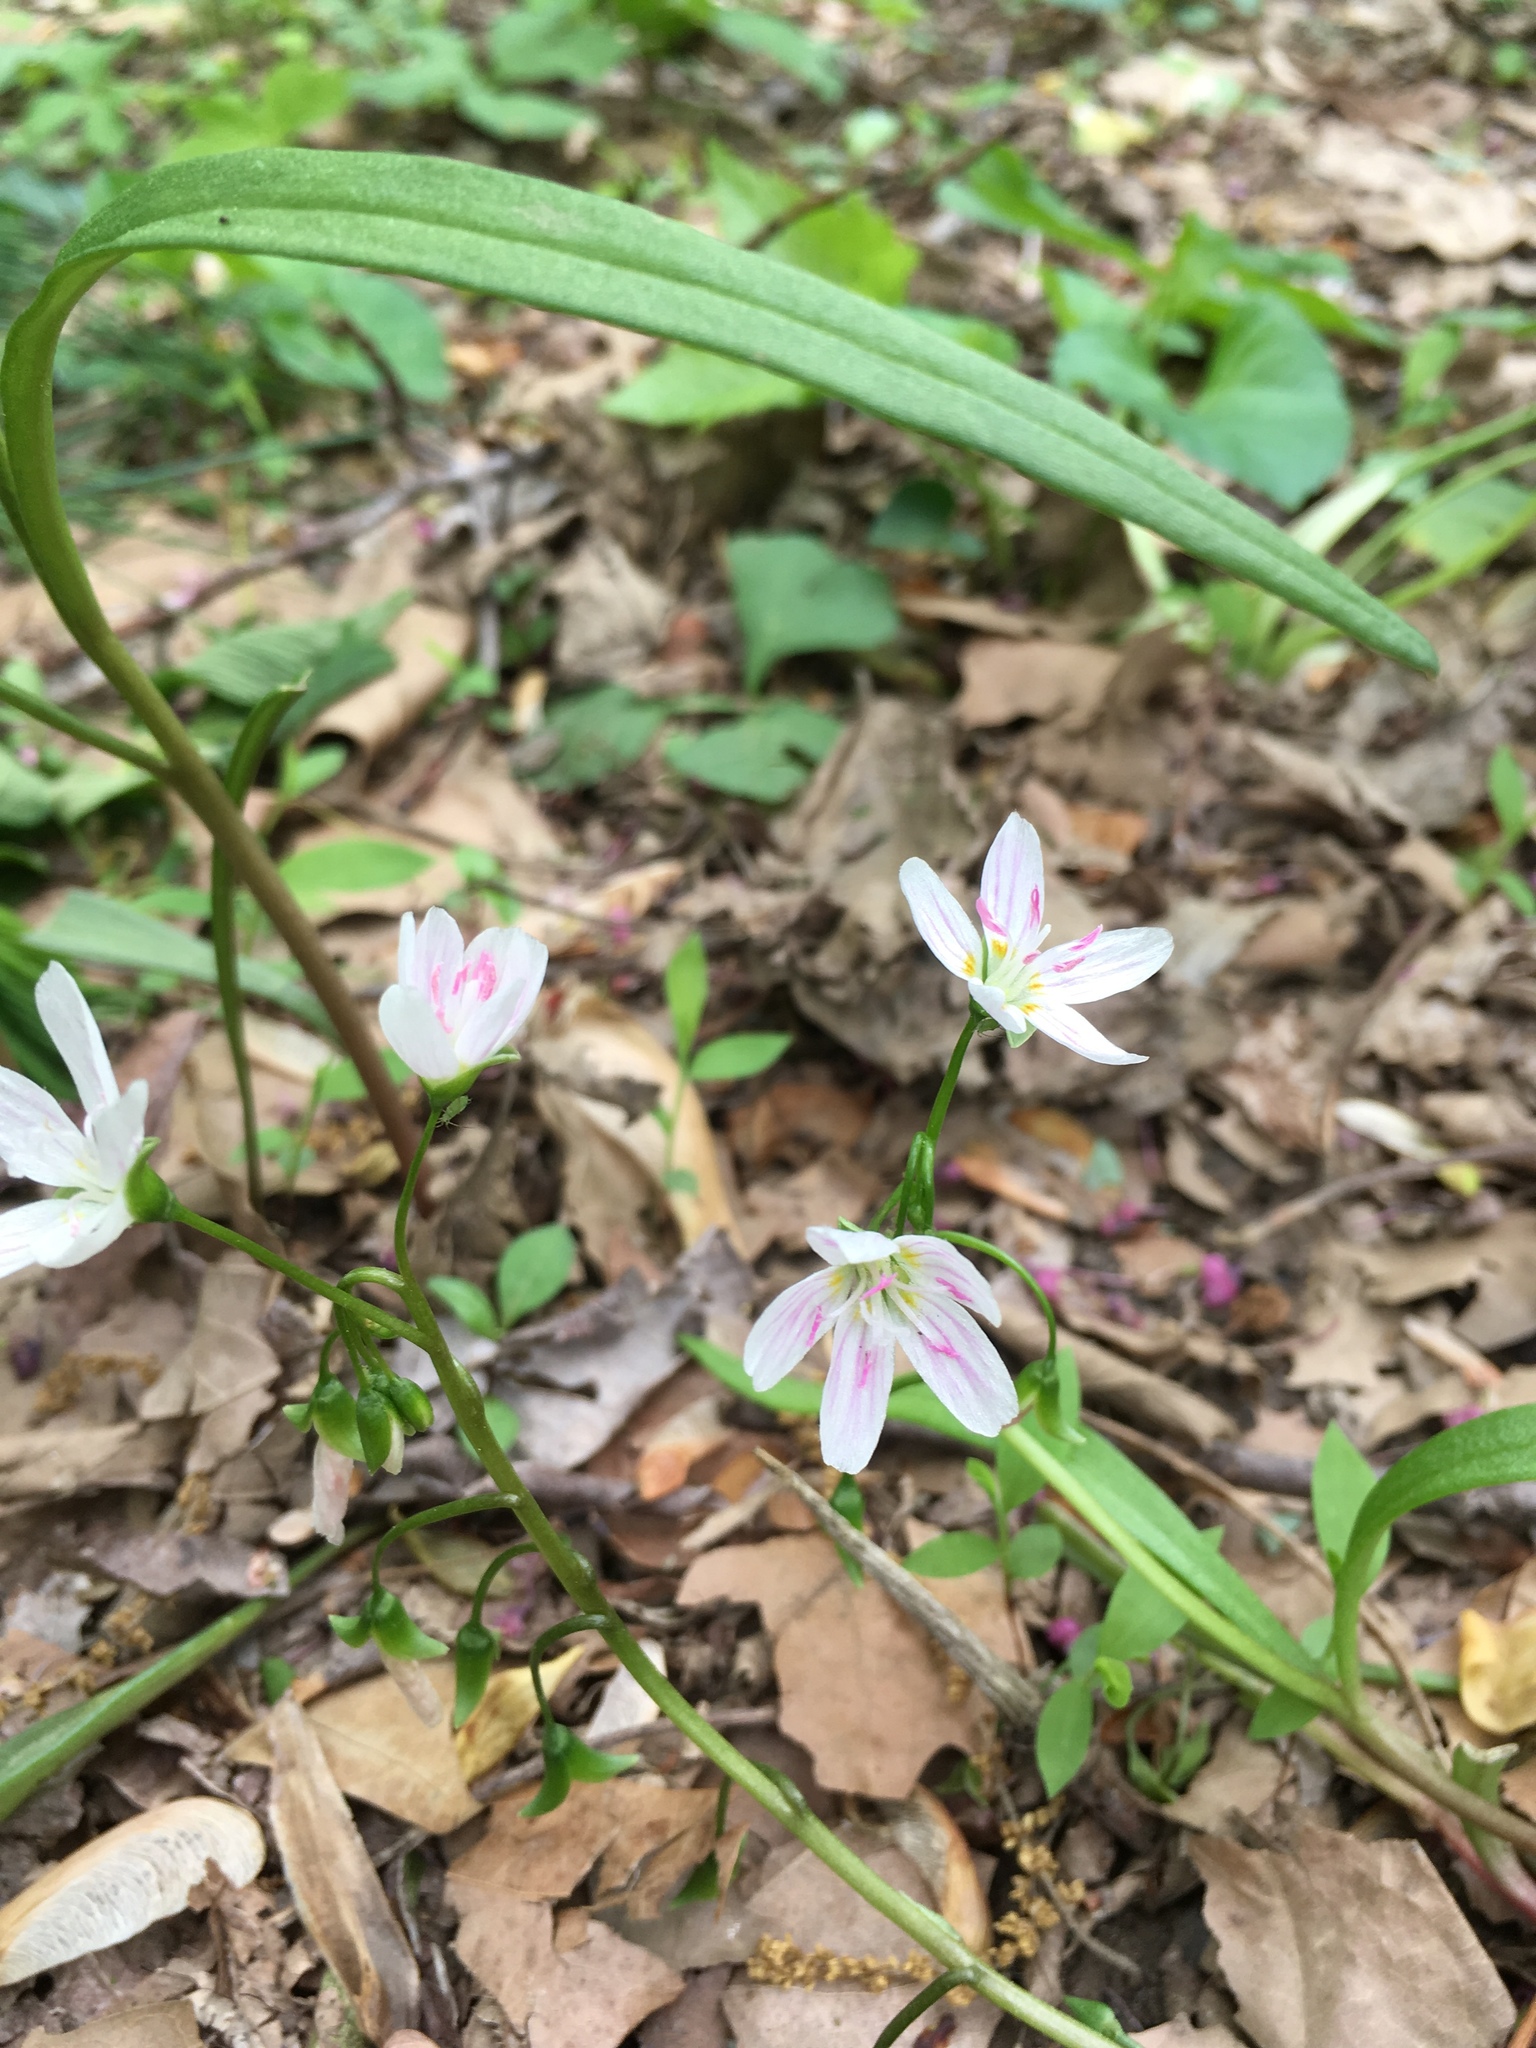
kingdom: Plantae
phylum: Tracheophyta
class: Magnoliopsida
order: Caryophyllales
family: Montiaceae
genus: Claytonia
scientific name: Claytonia virginica
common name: Virginia springbeauty
